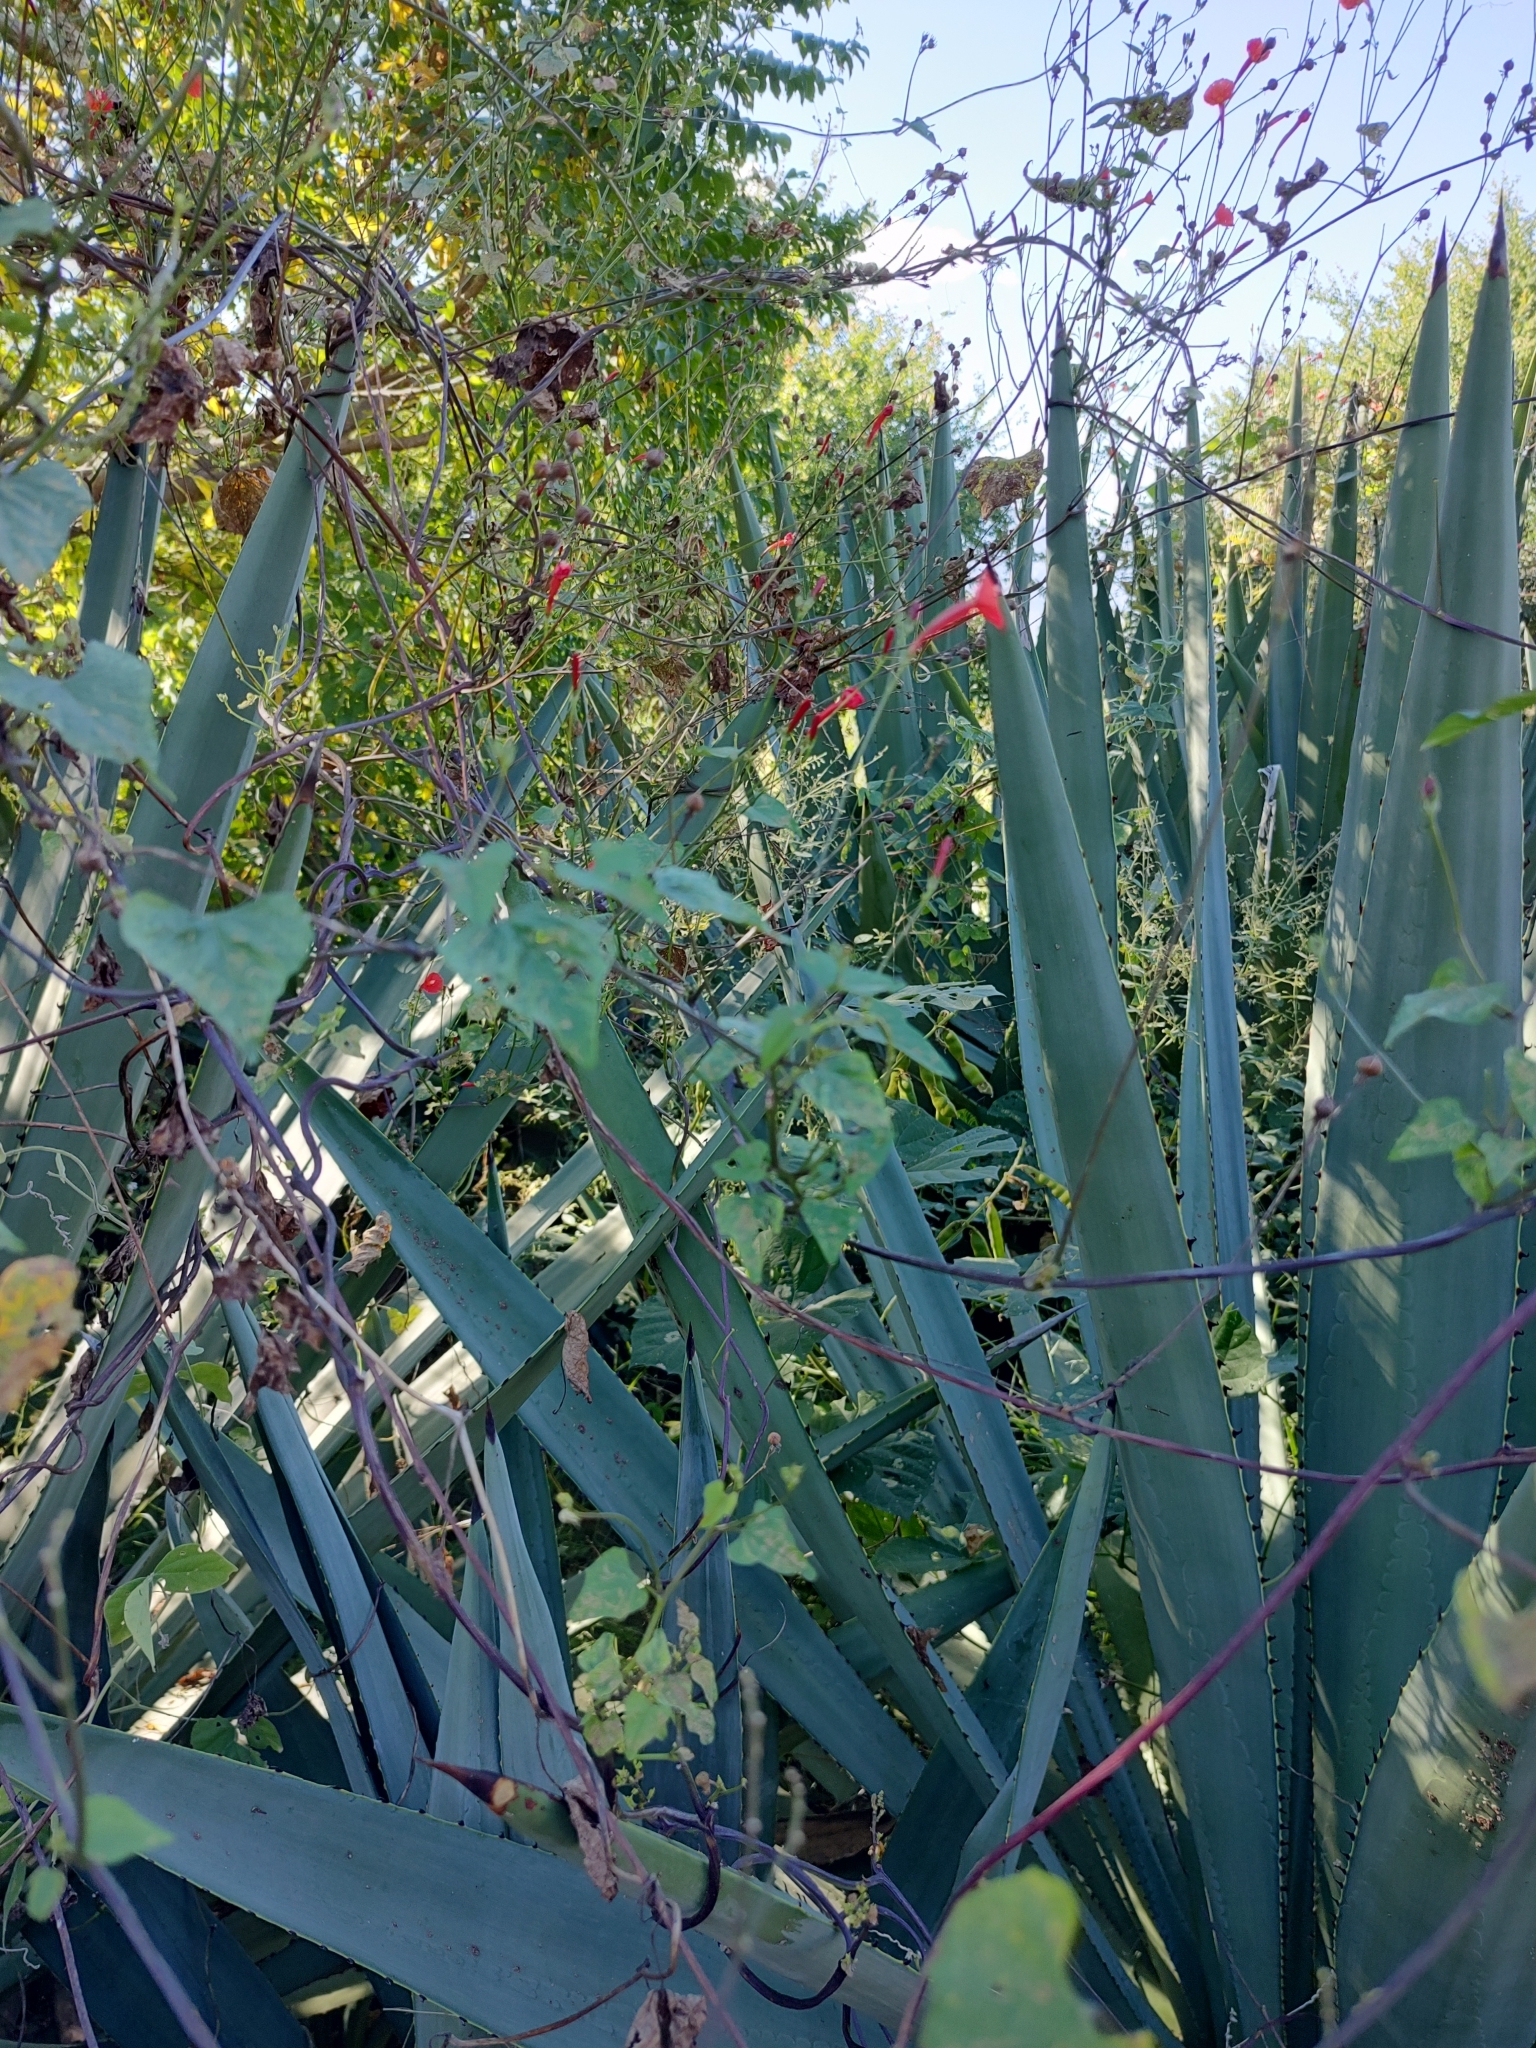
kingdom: Plantae
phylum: Tracheophyta
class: Magnoliopsida
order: Solanales
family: Convolvulaceae
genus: Ipomoea
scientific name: Ipomoea hederifolia
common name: Ivy-leaf morning-glory
